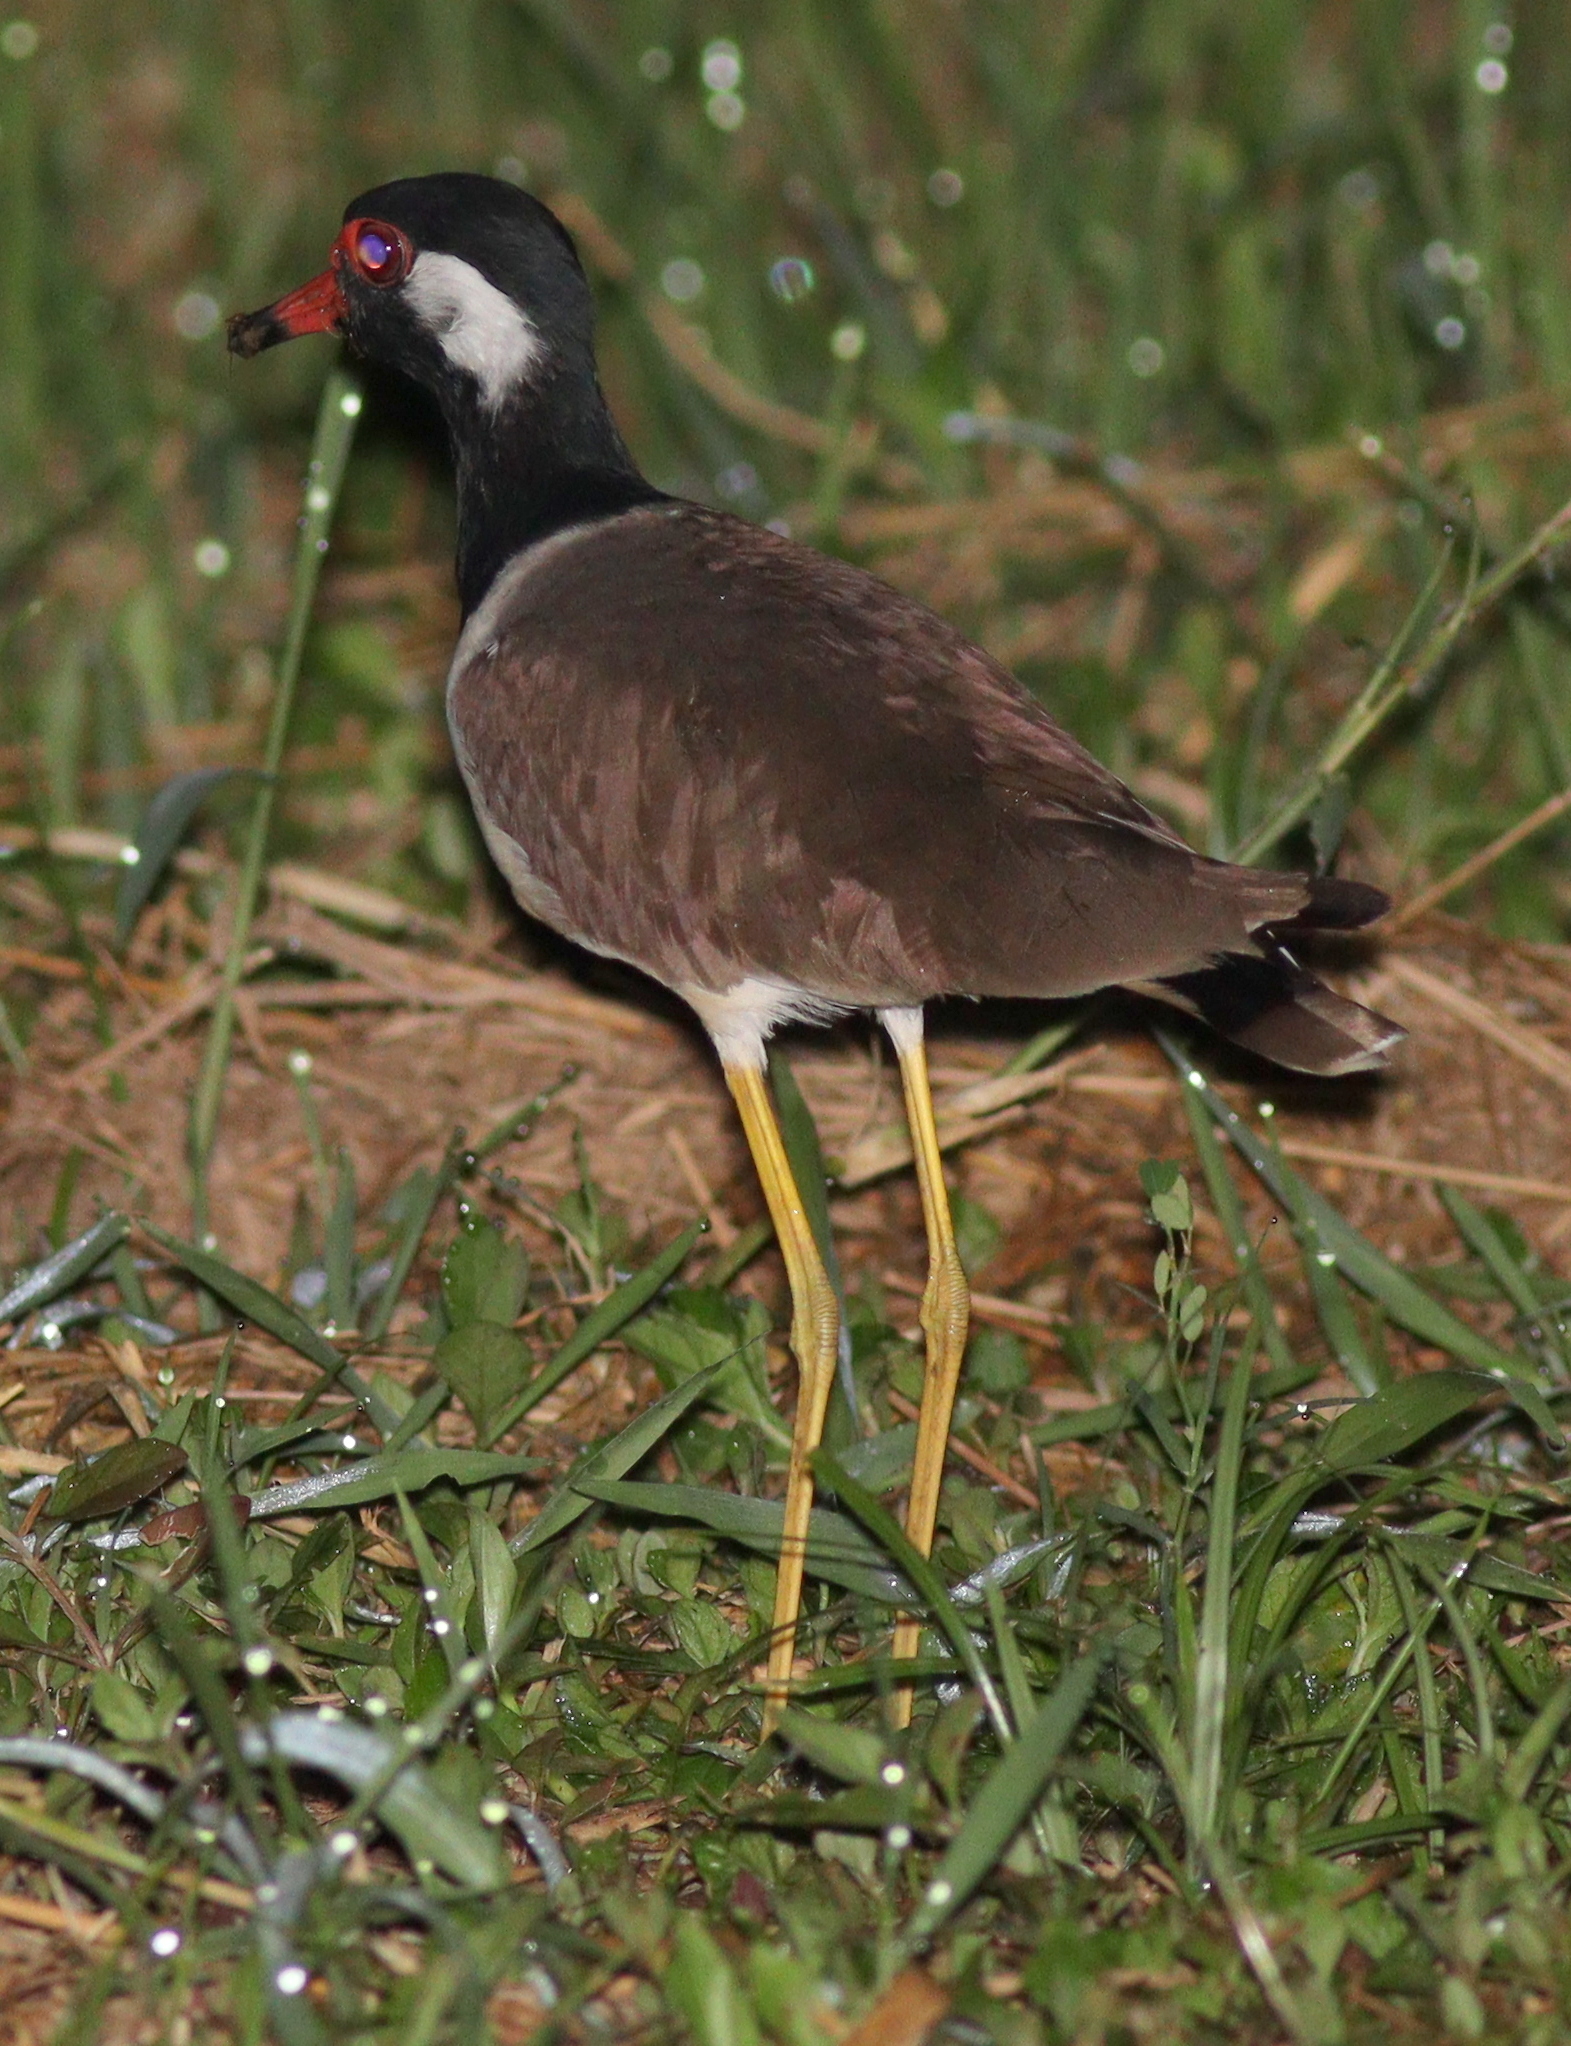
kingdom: Animalia
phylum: Chordata
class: Aves
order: Charadriiformes
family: Charadriidae
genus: Vanellus
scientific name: Vanellus indicus
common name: Red-wattled lapwing
